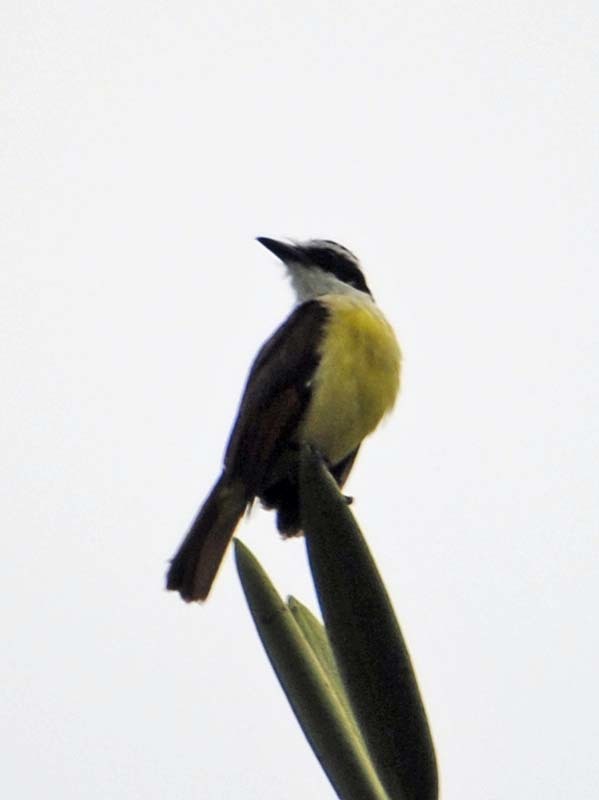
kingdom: Animalia
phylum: Chordata
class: Aves
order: Passeriformes
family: Tyrannidae
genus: Pitangus
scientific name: Pitangus sulphuratus
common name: Great kiskadee
